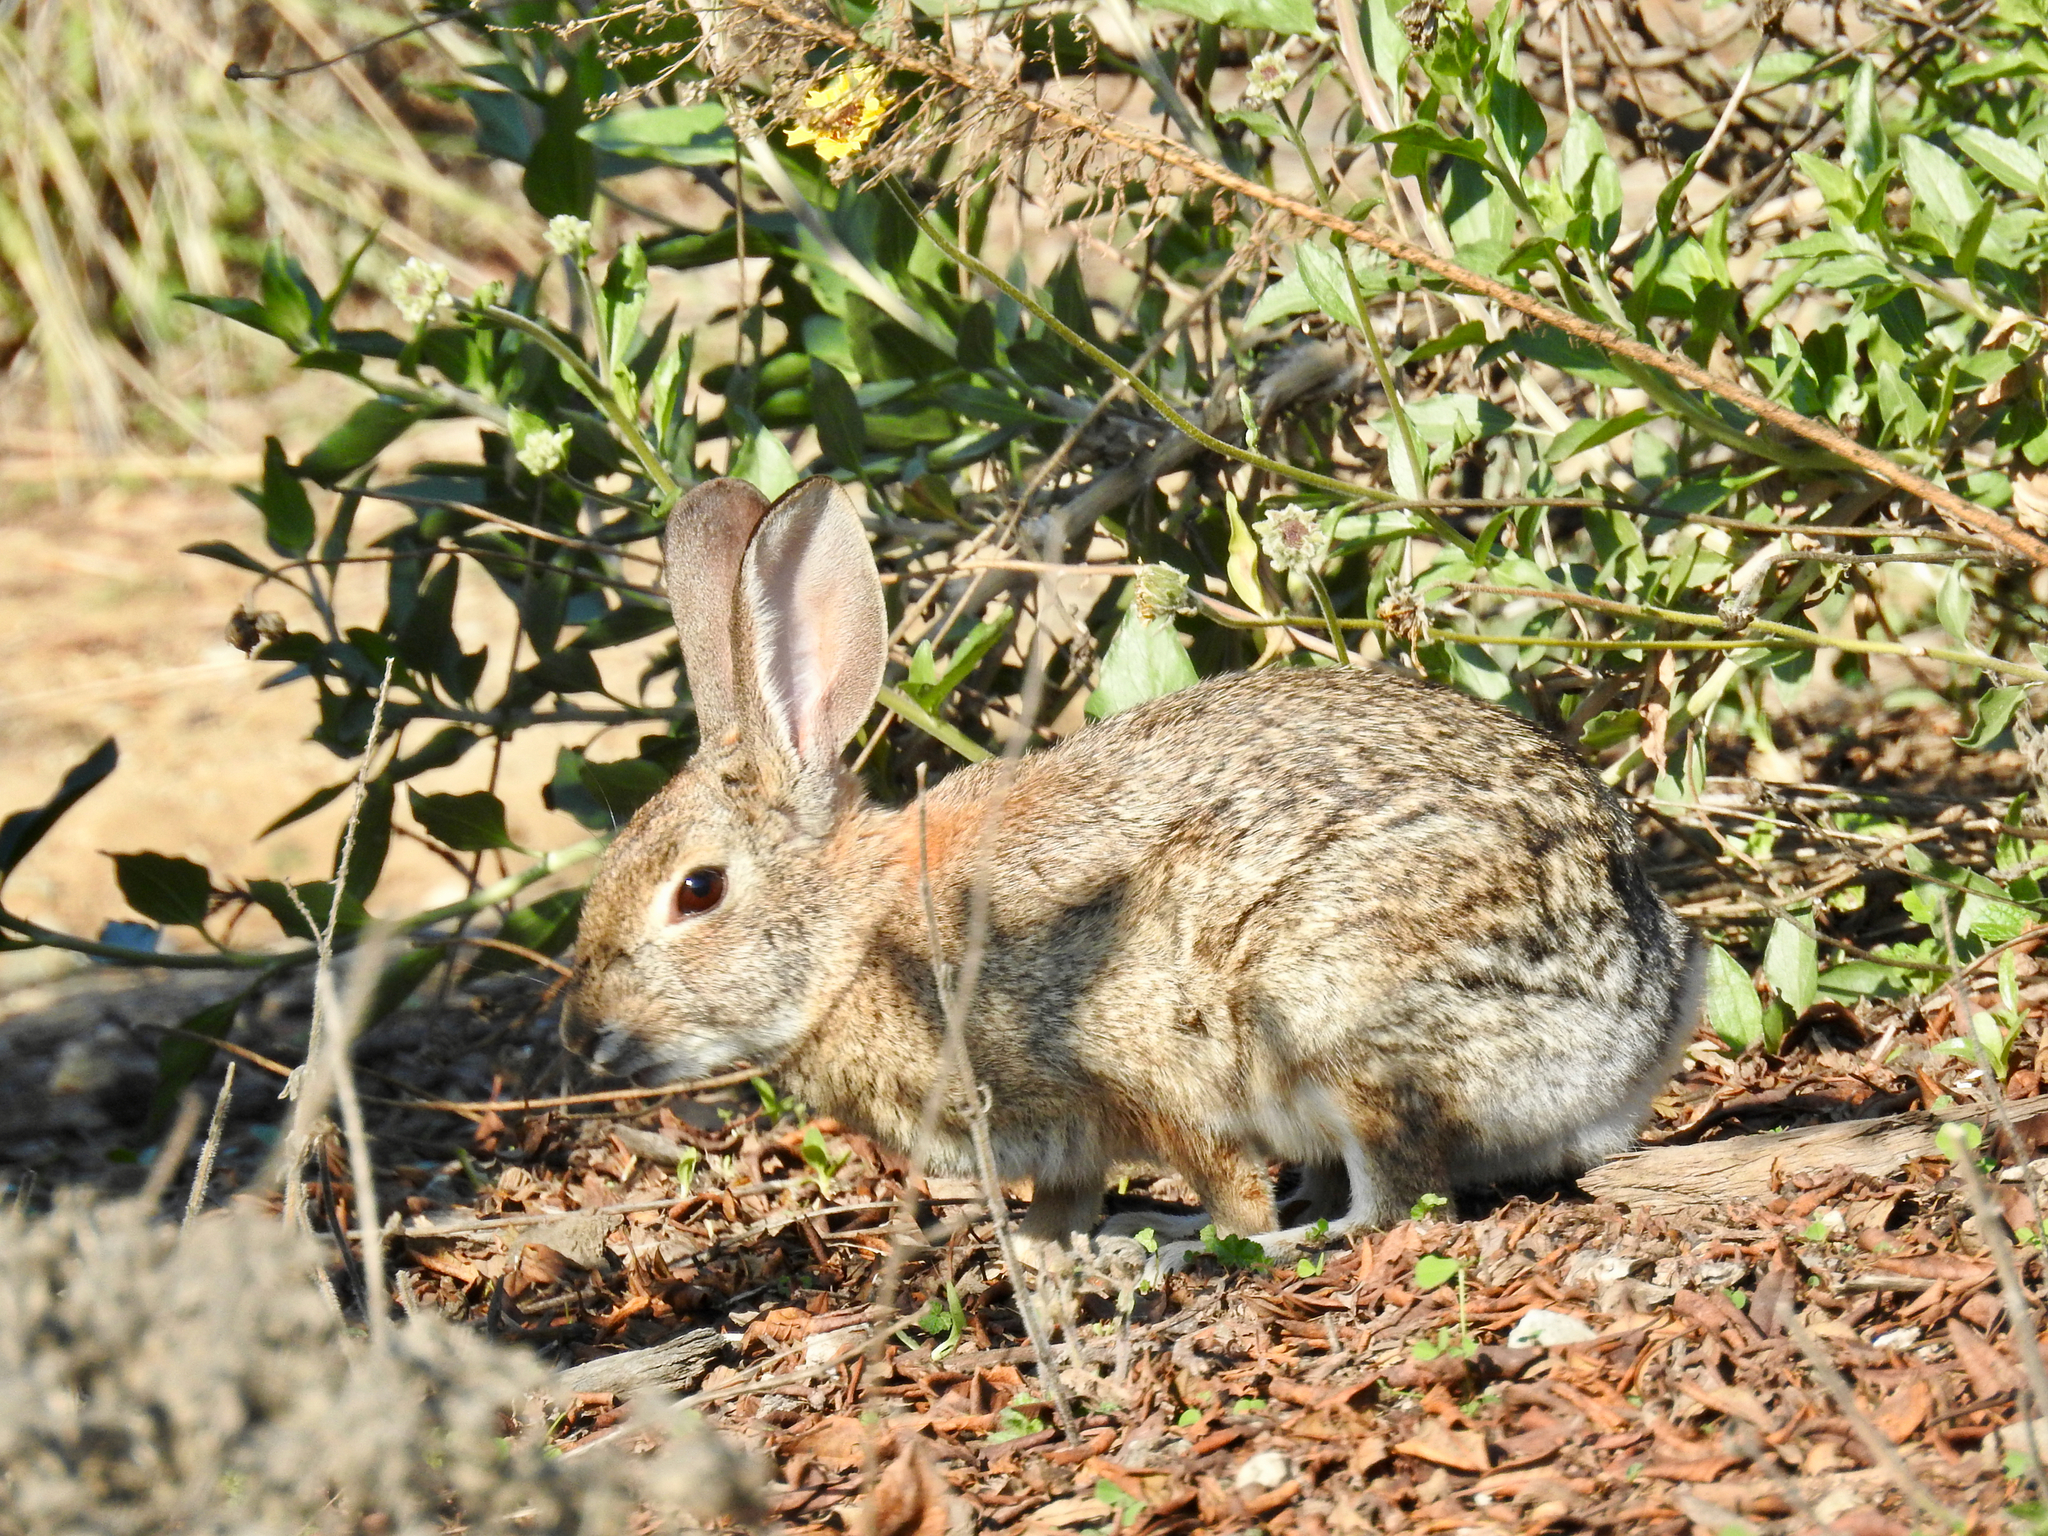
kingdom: Animalia
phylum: Chordata
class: Mammalia
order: Lagomorpha
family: Leporidae
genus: Sylvilagus
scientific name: Sylvilagus audubonii
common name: Desert cottontail
